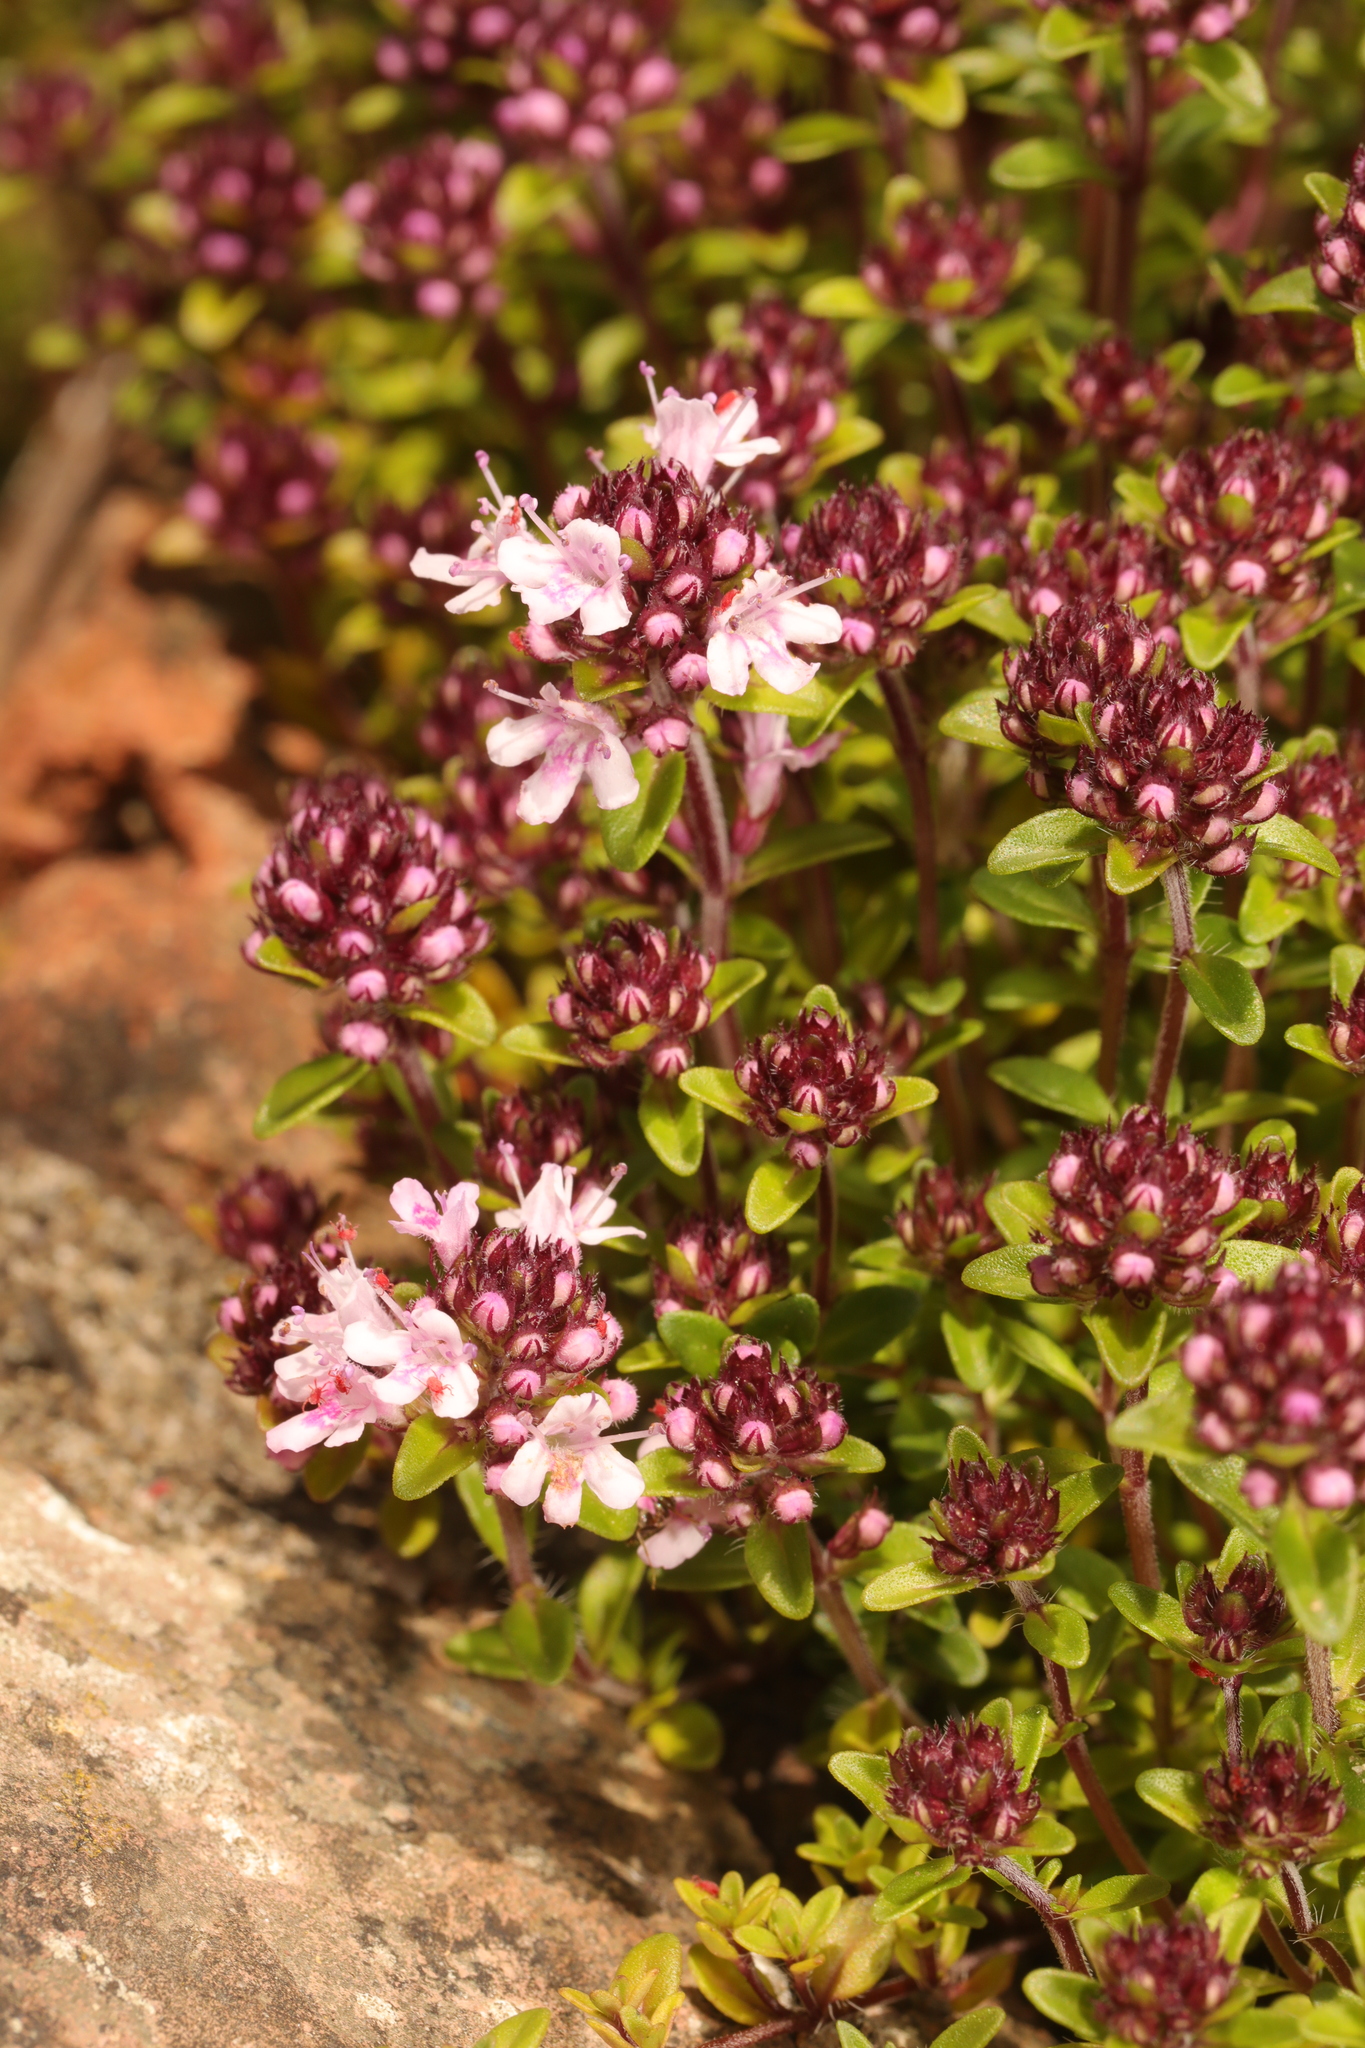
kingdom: Plantae
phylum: Tracheophyta
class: Magnoliopsida
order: Lamiales
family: Lamiaceae
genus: Thymus
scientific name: Thymus praecox
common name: Wild thyme
